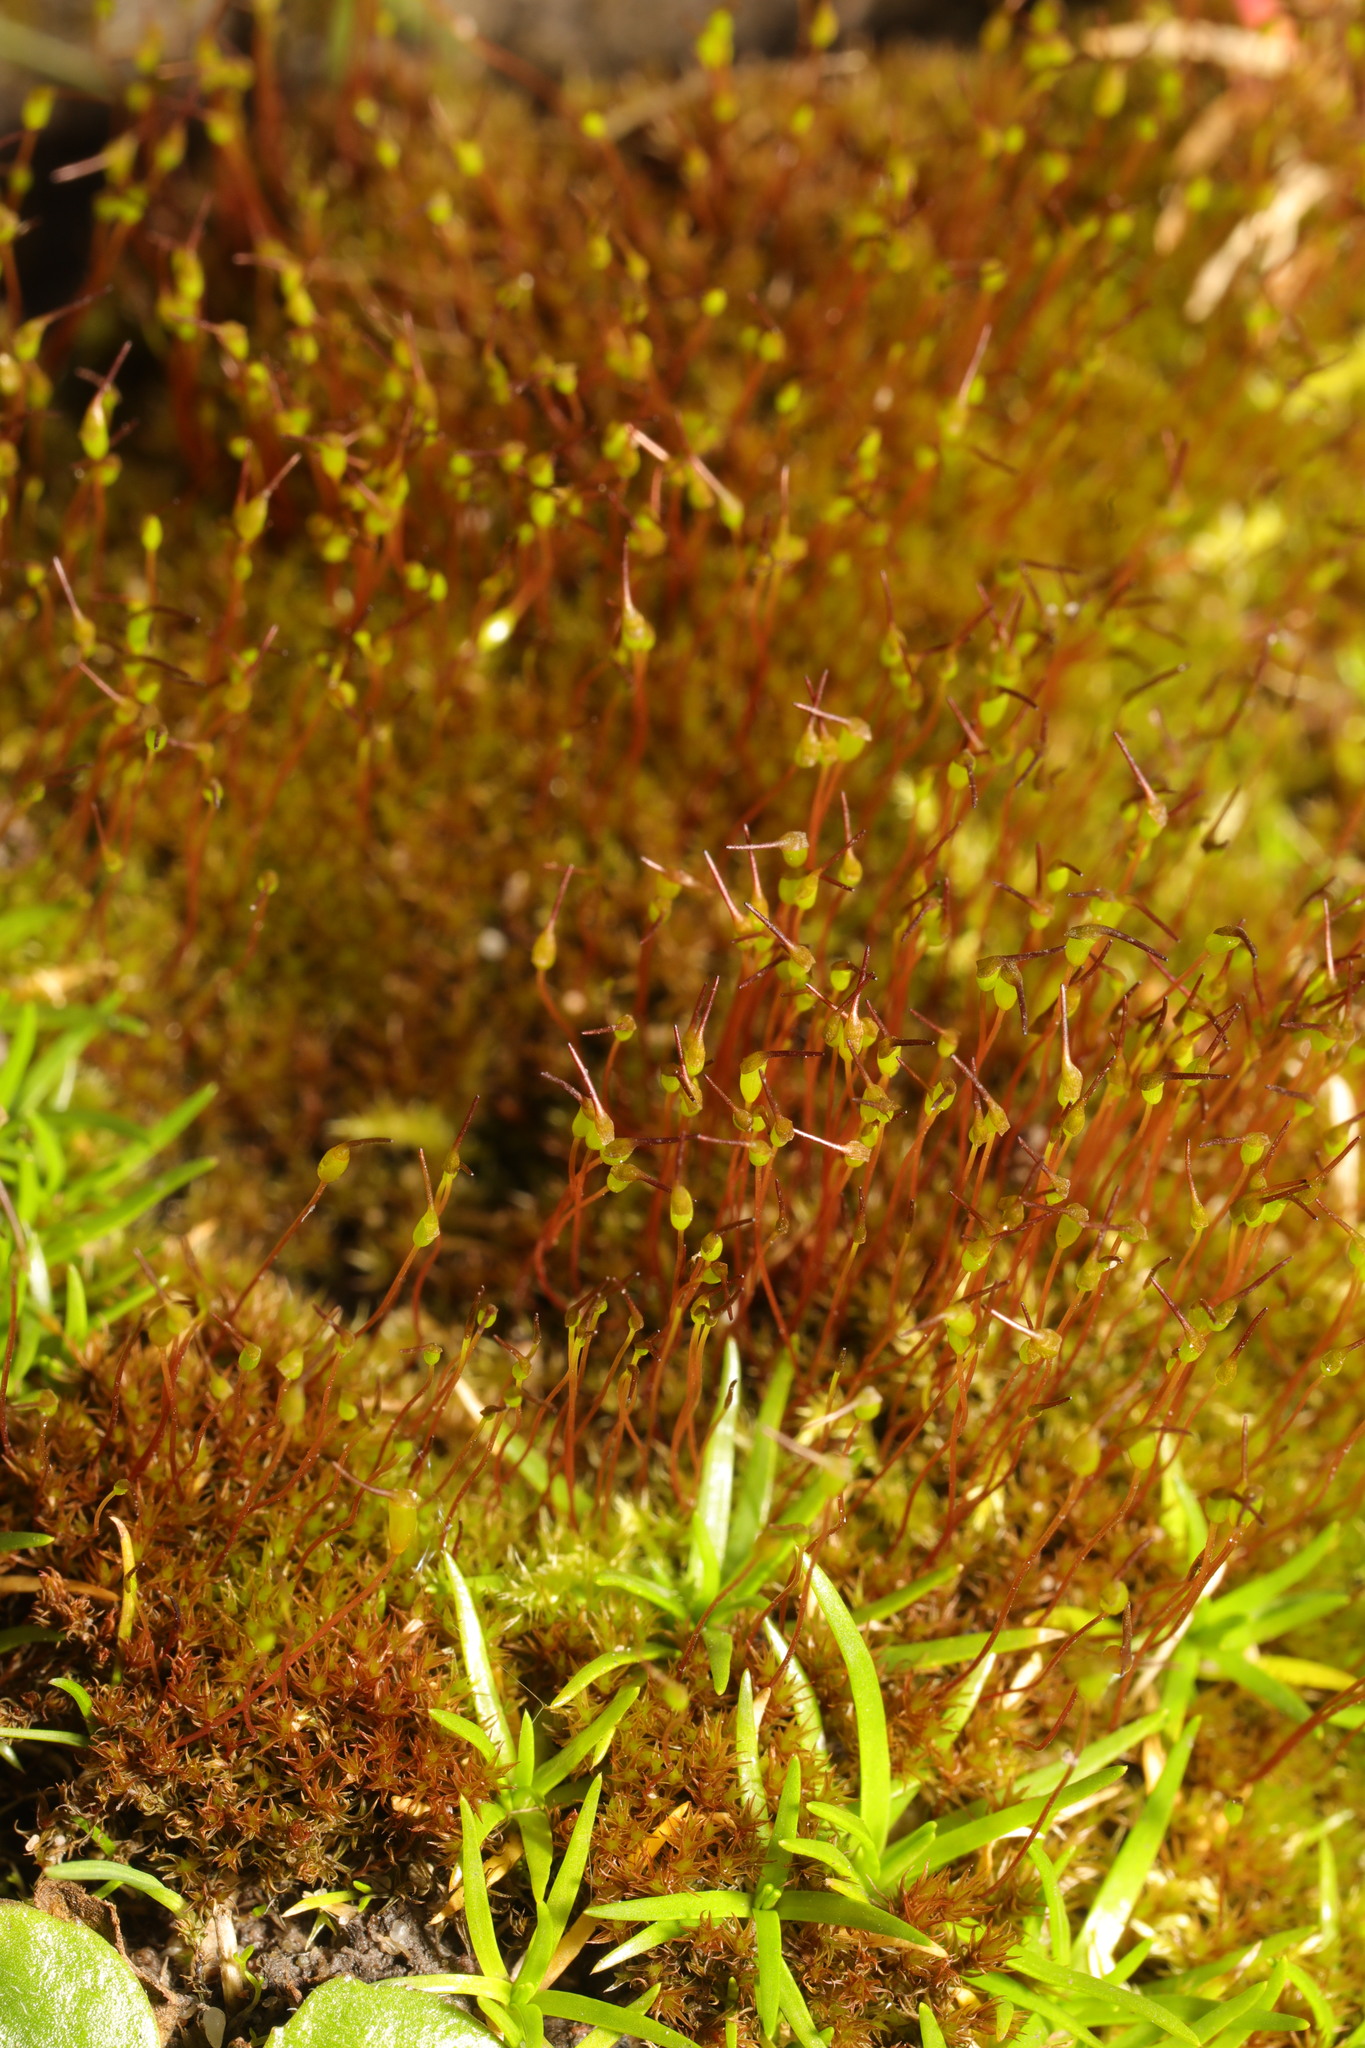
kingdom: Plantae
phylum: Bryophyta
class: Bryopsida
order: Dicranales
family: Ditrichaceae
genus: Ceratodon
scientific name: Ceratodon purpureus
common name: Redshank
